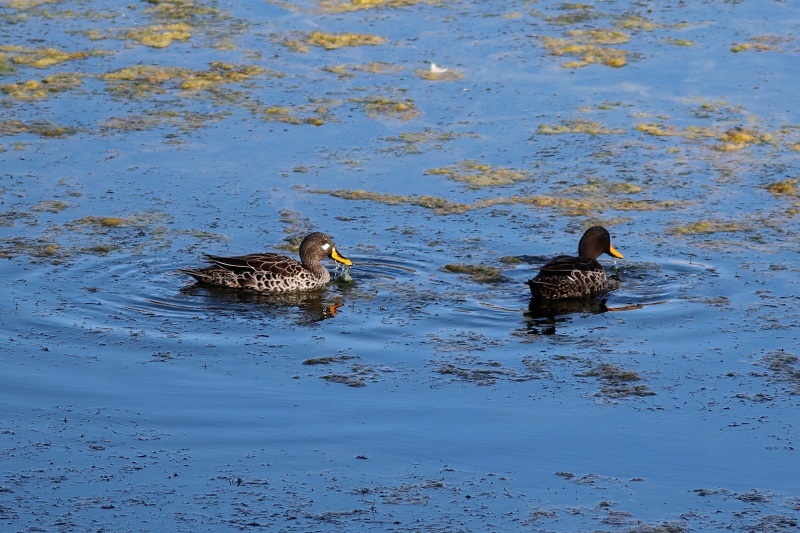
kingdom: Animalia
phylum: Chordata
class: Aves
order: Anseriformes
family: Anatidae
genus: Anas
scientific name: Anas undulata
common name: Yellow-billed duck
